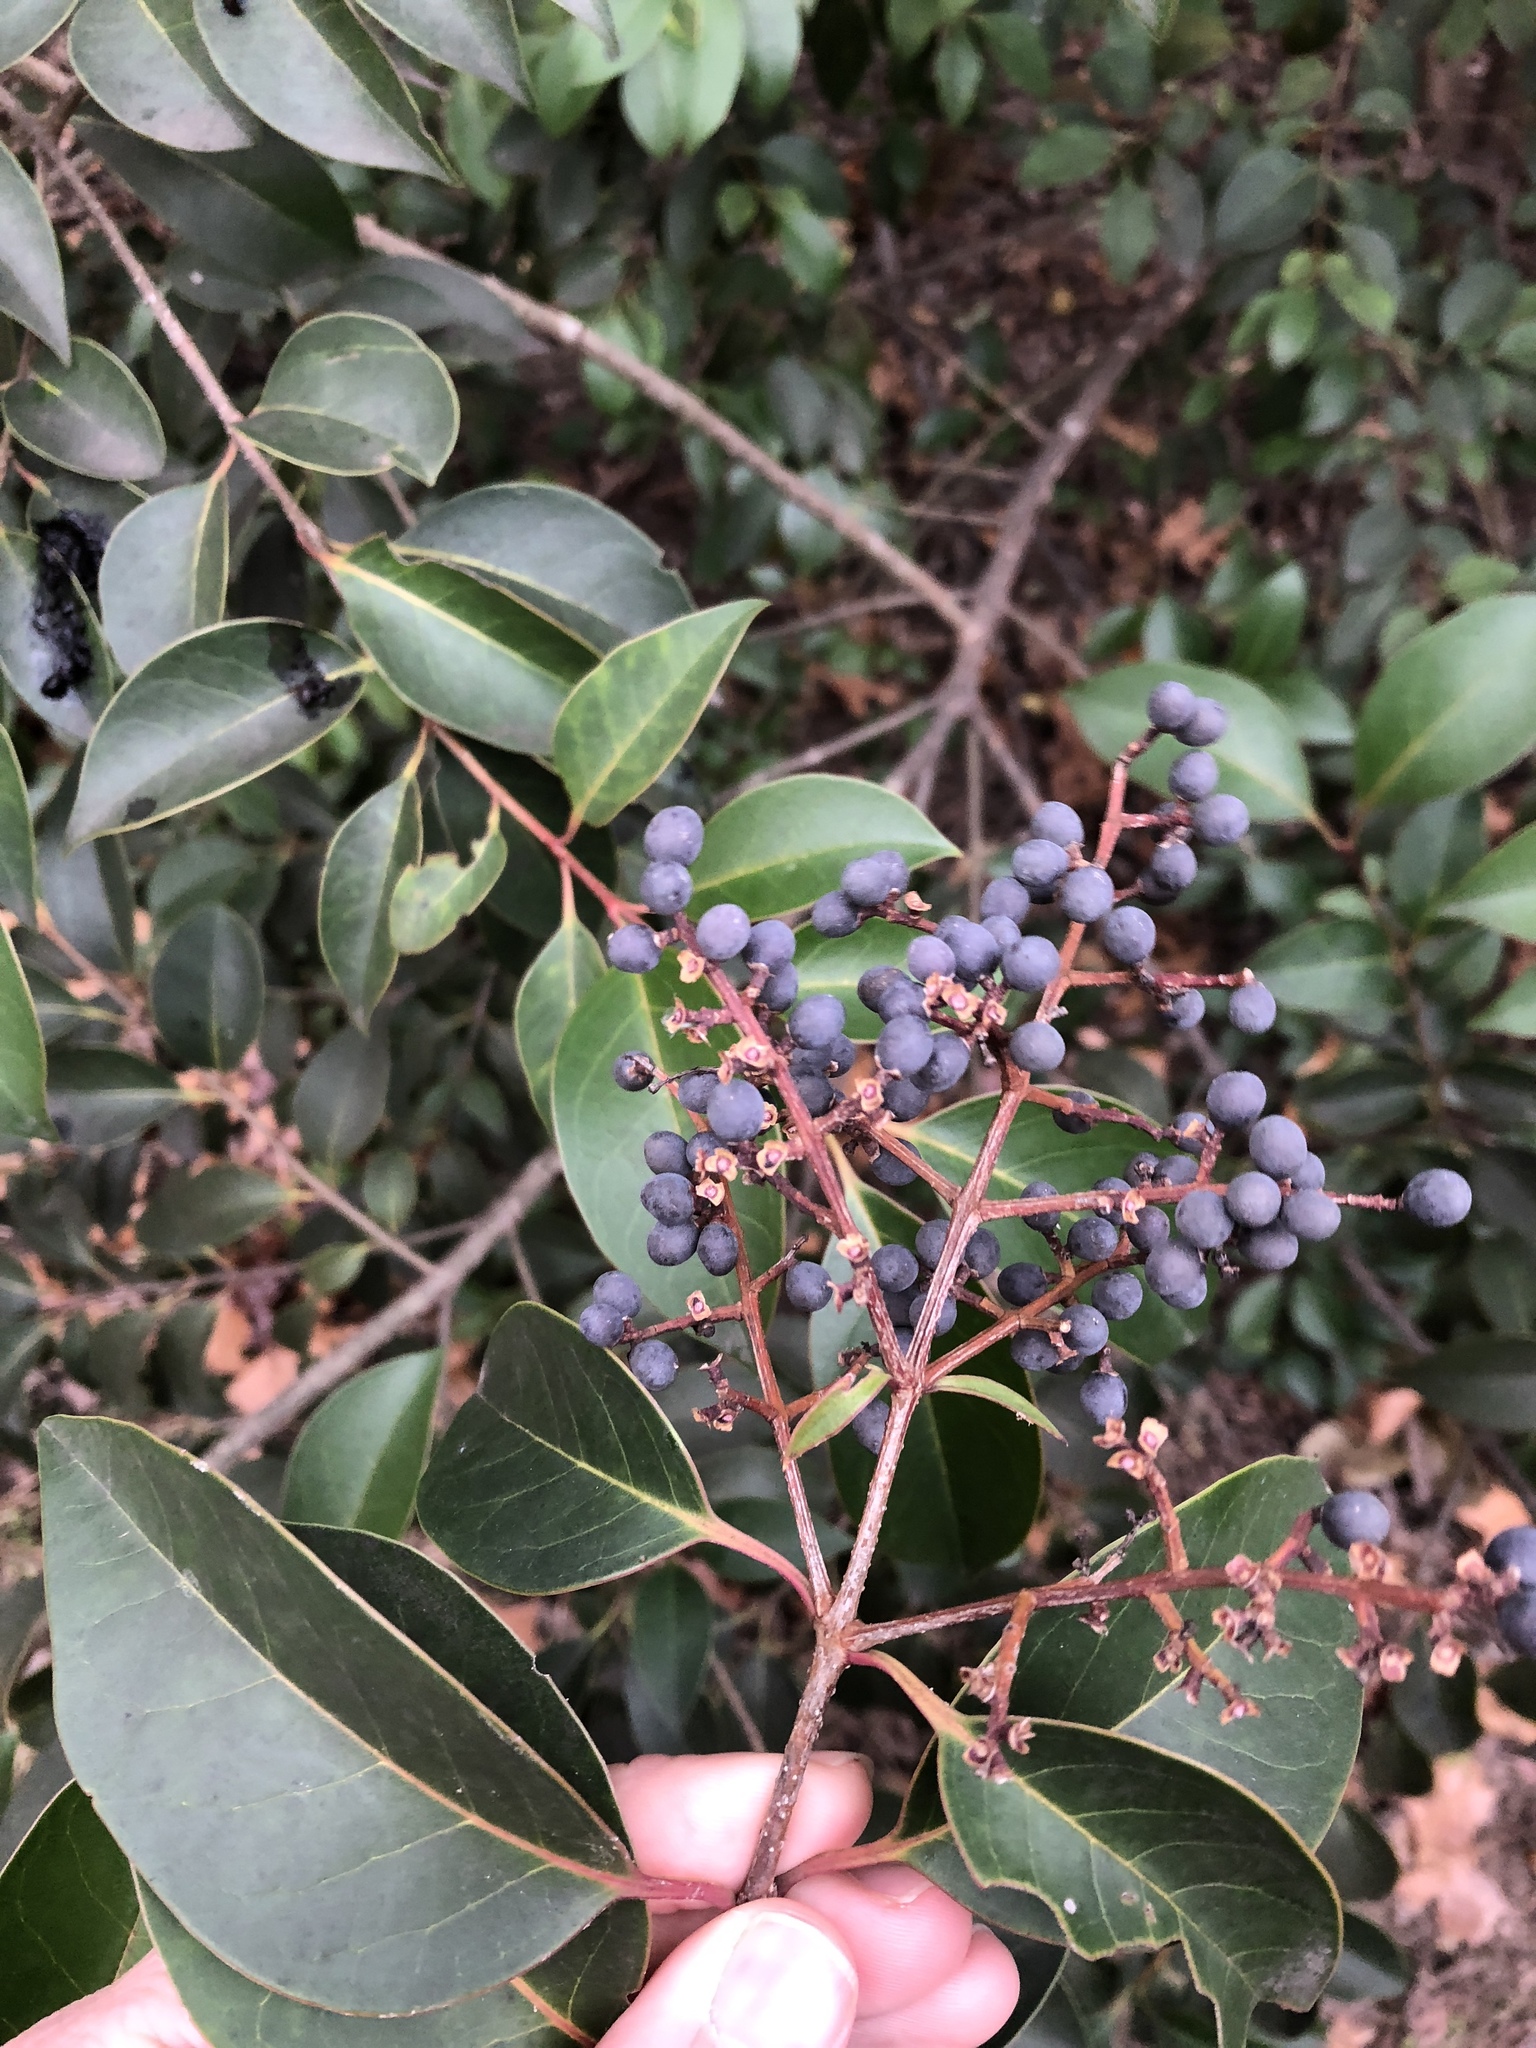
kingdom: Plantae
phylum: Tracheophyta
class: Magnoliopsida
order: Lamiales
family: Oleaceae
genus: Ligustrum
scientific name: Ligustrum lucidum
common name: Glossy privet
